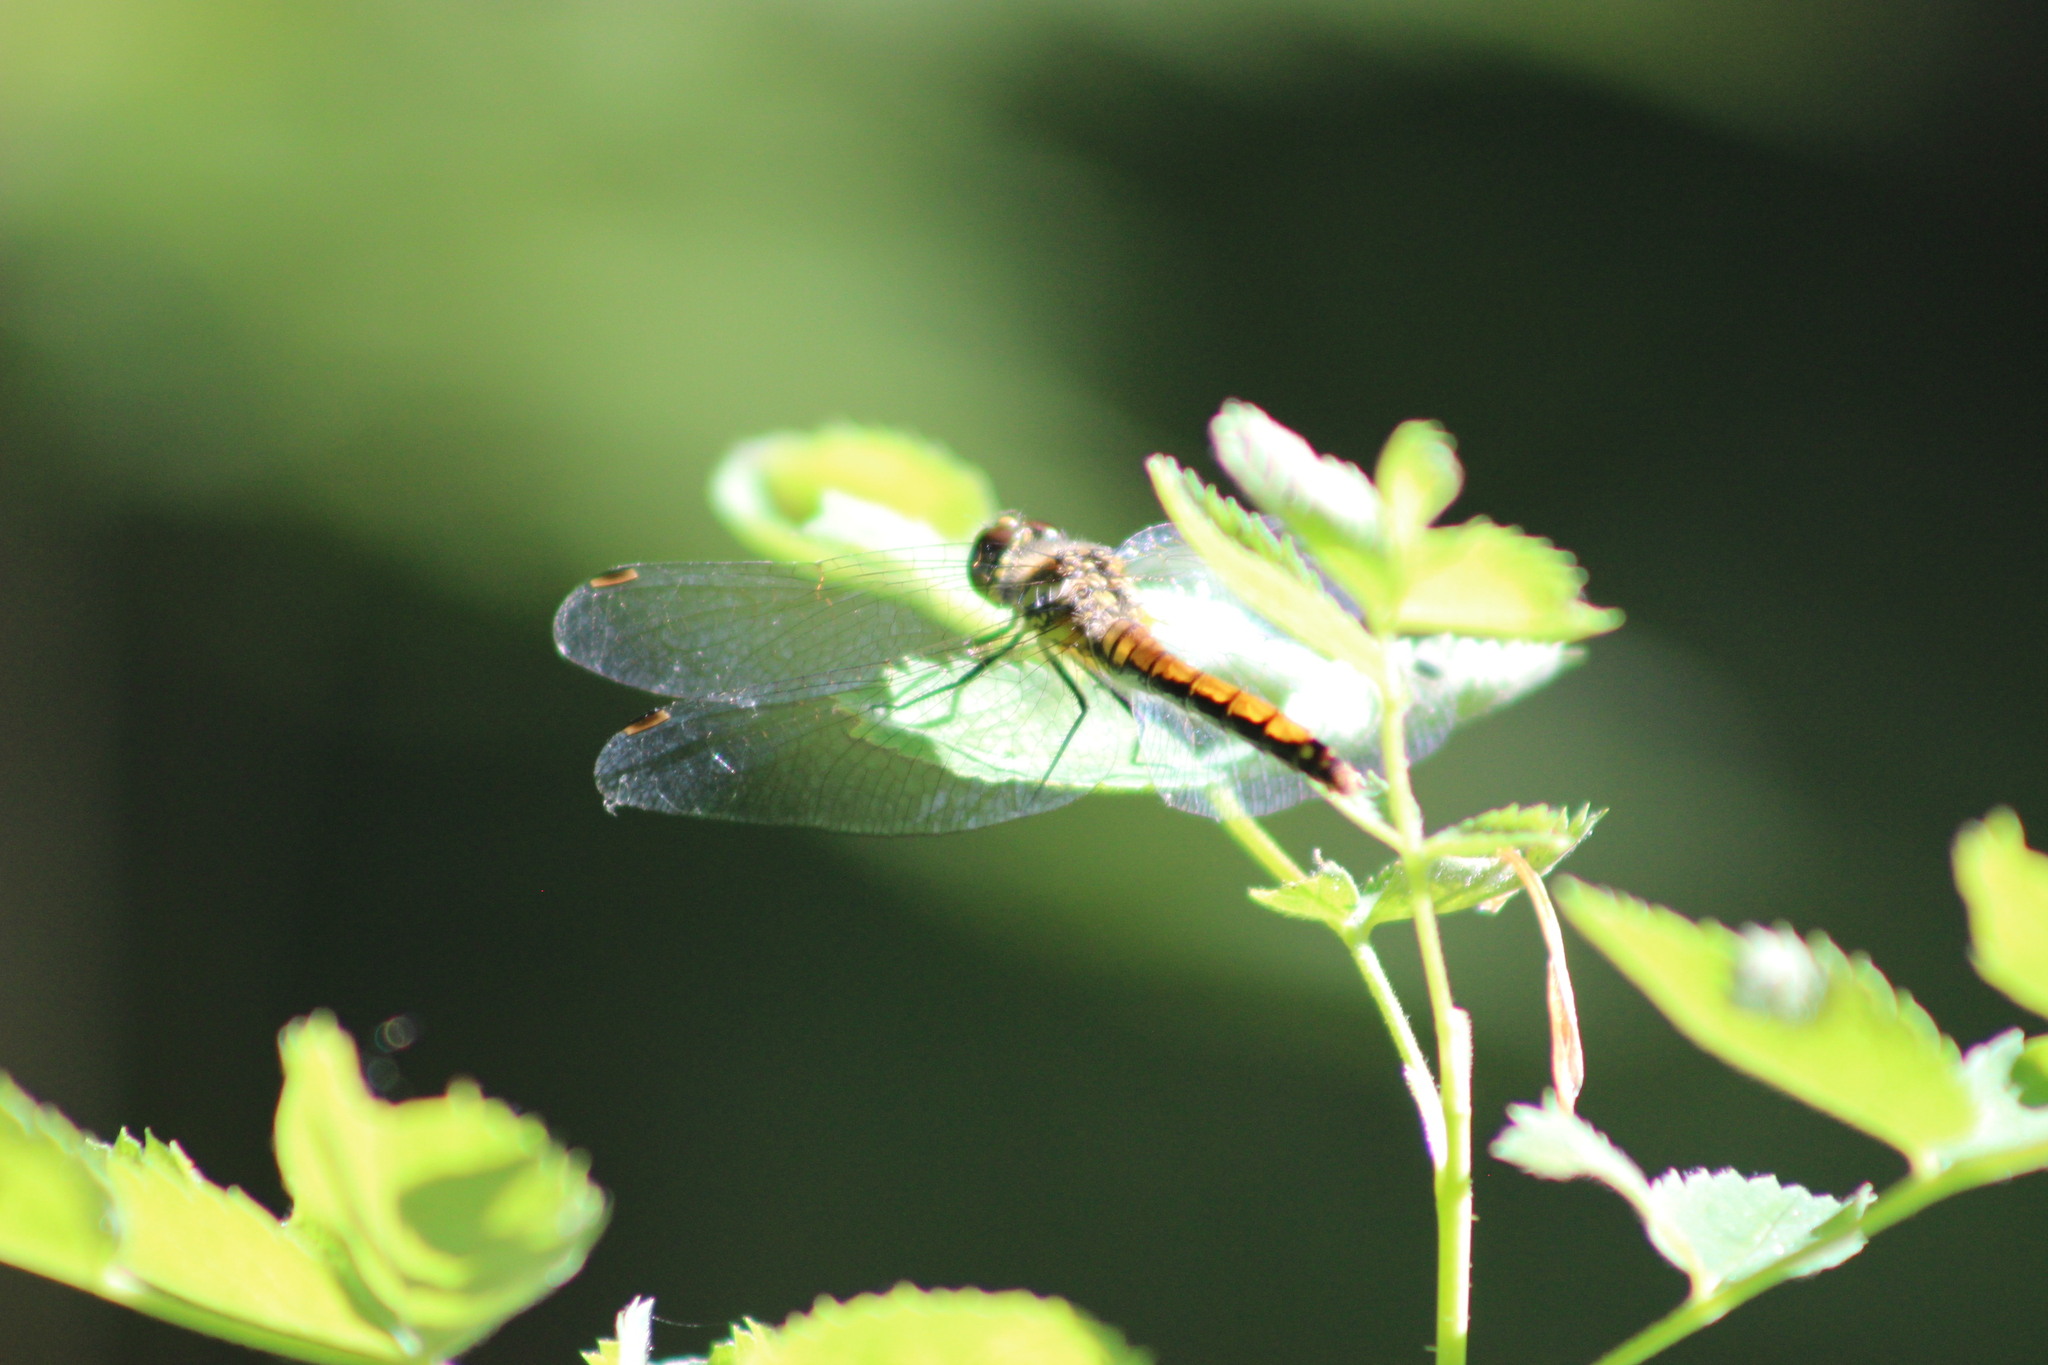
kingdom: Animalia
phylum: Arthropoda
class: Insecta
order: Odonata
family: Libellulidae
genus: Sympetrum
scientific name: Sympetrum danae
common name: Black darter
